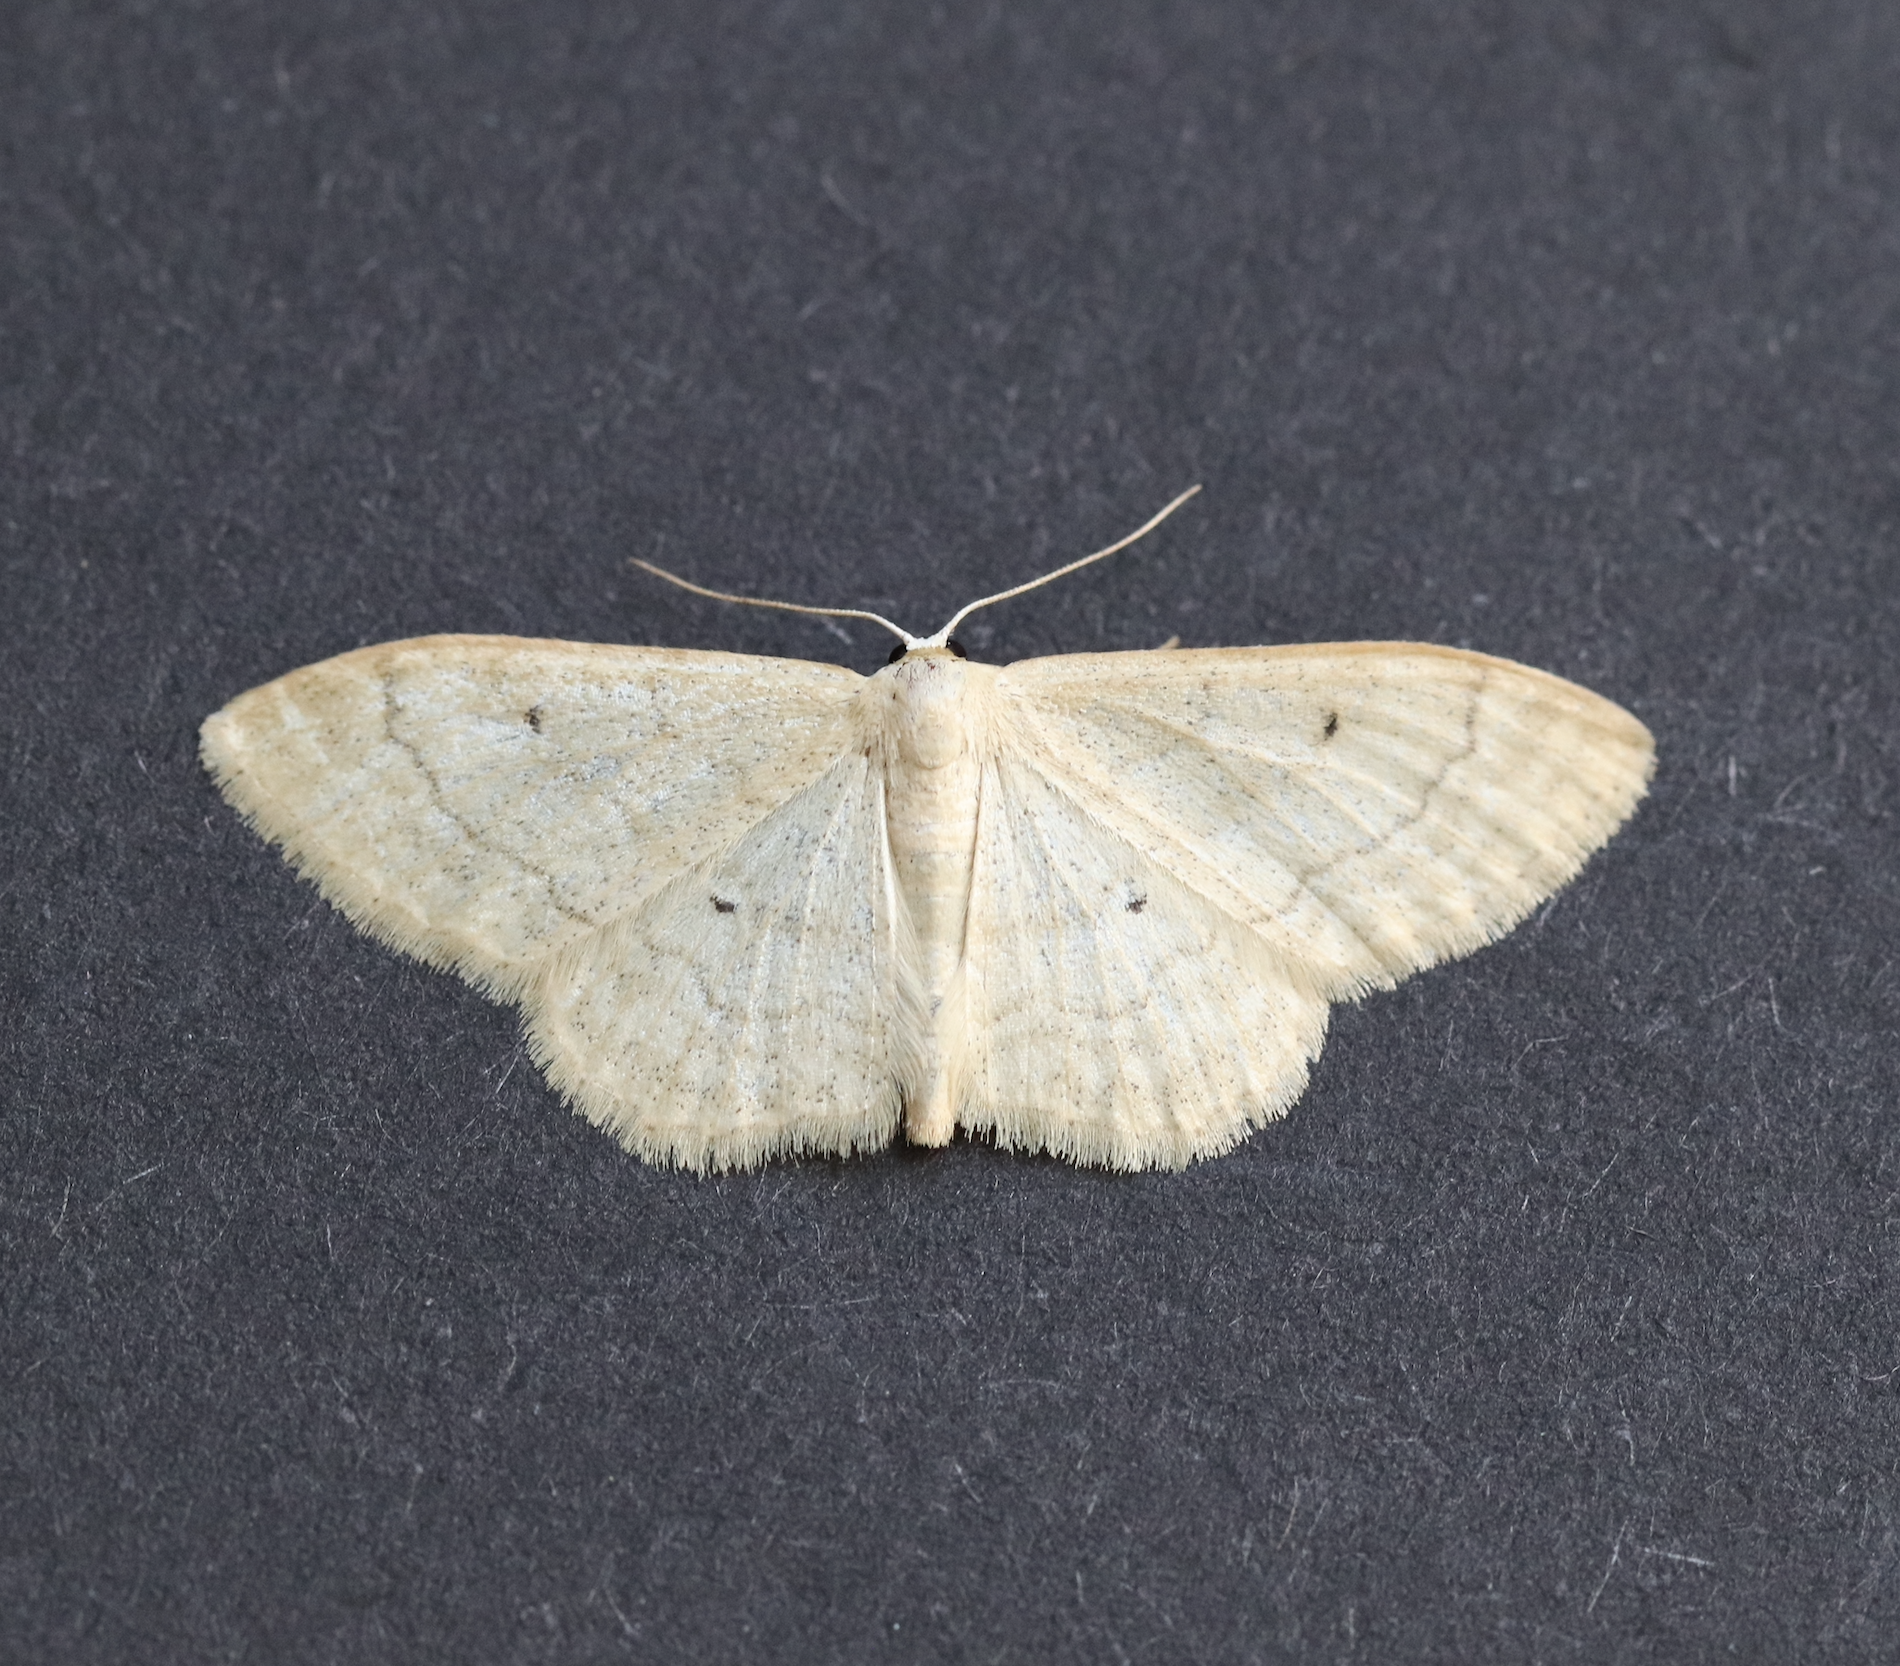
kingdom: Animalia
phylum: Arthropoda
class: Insecta
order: Lepidoptera
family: Geometridae
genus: Idaea
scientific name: Idaea maritimaria
